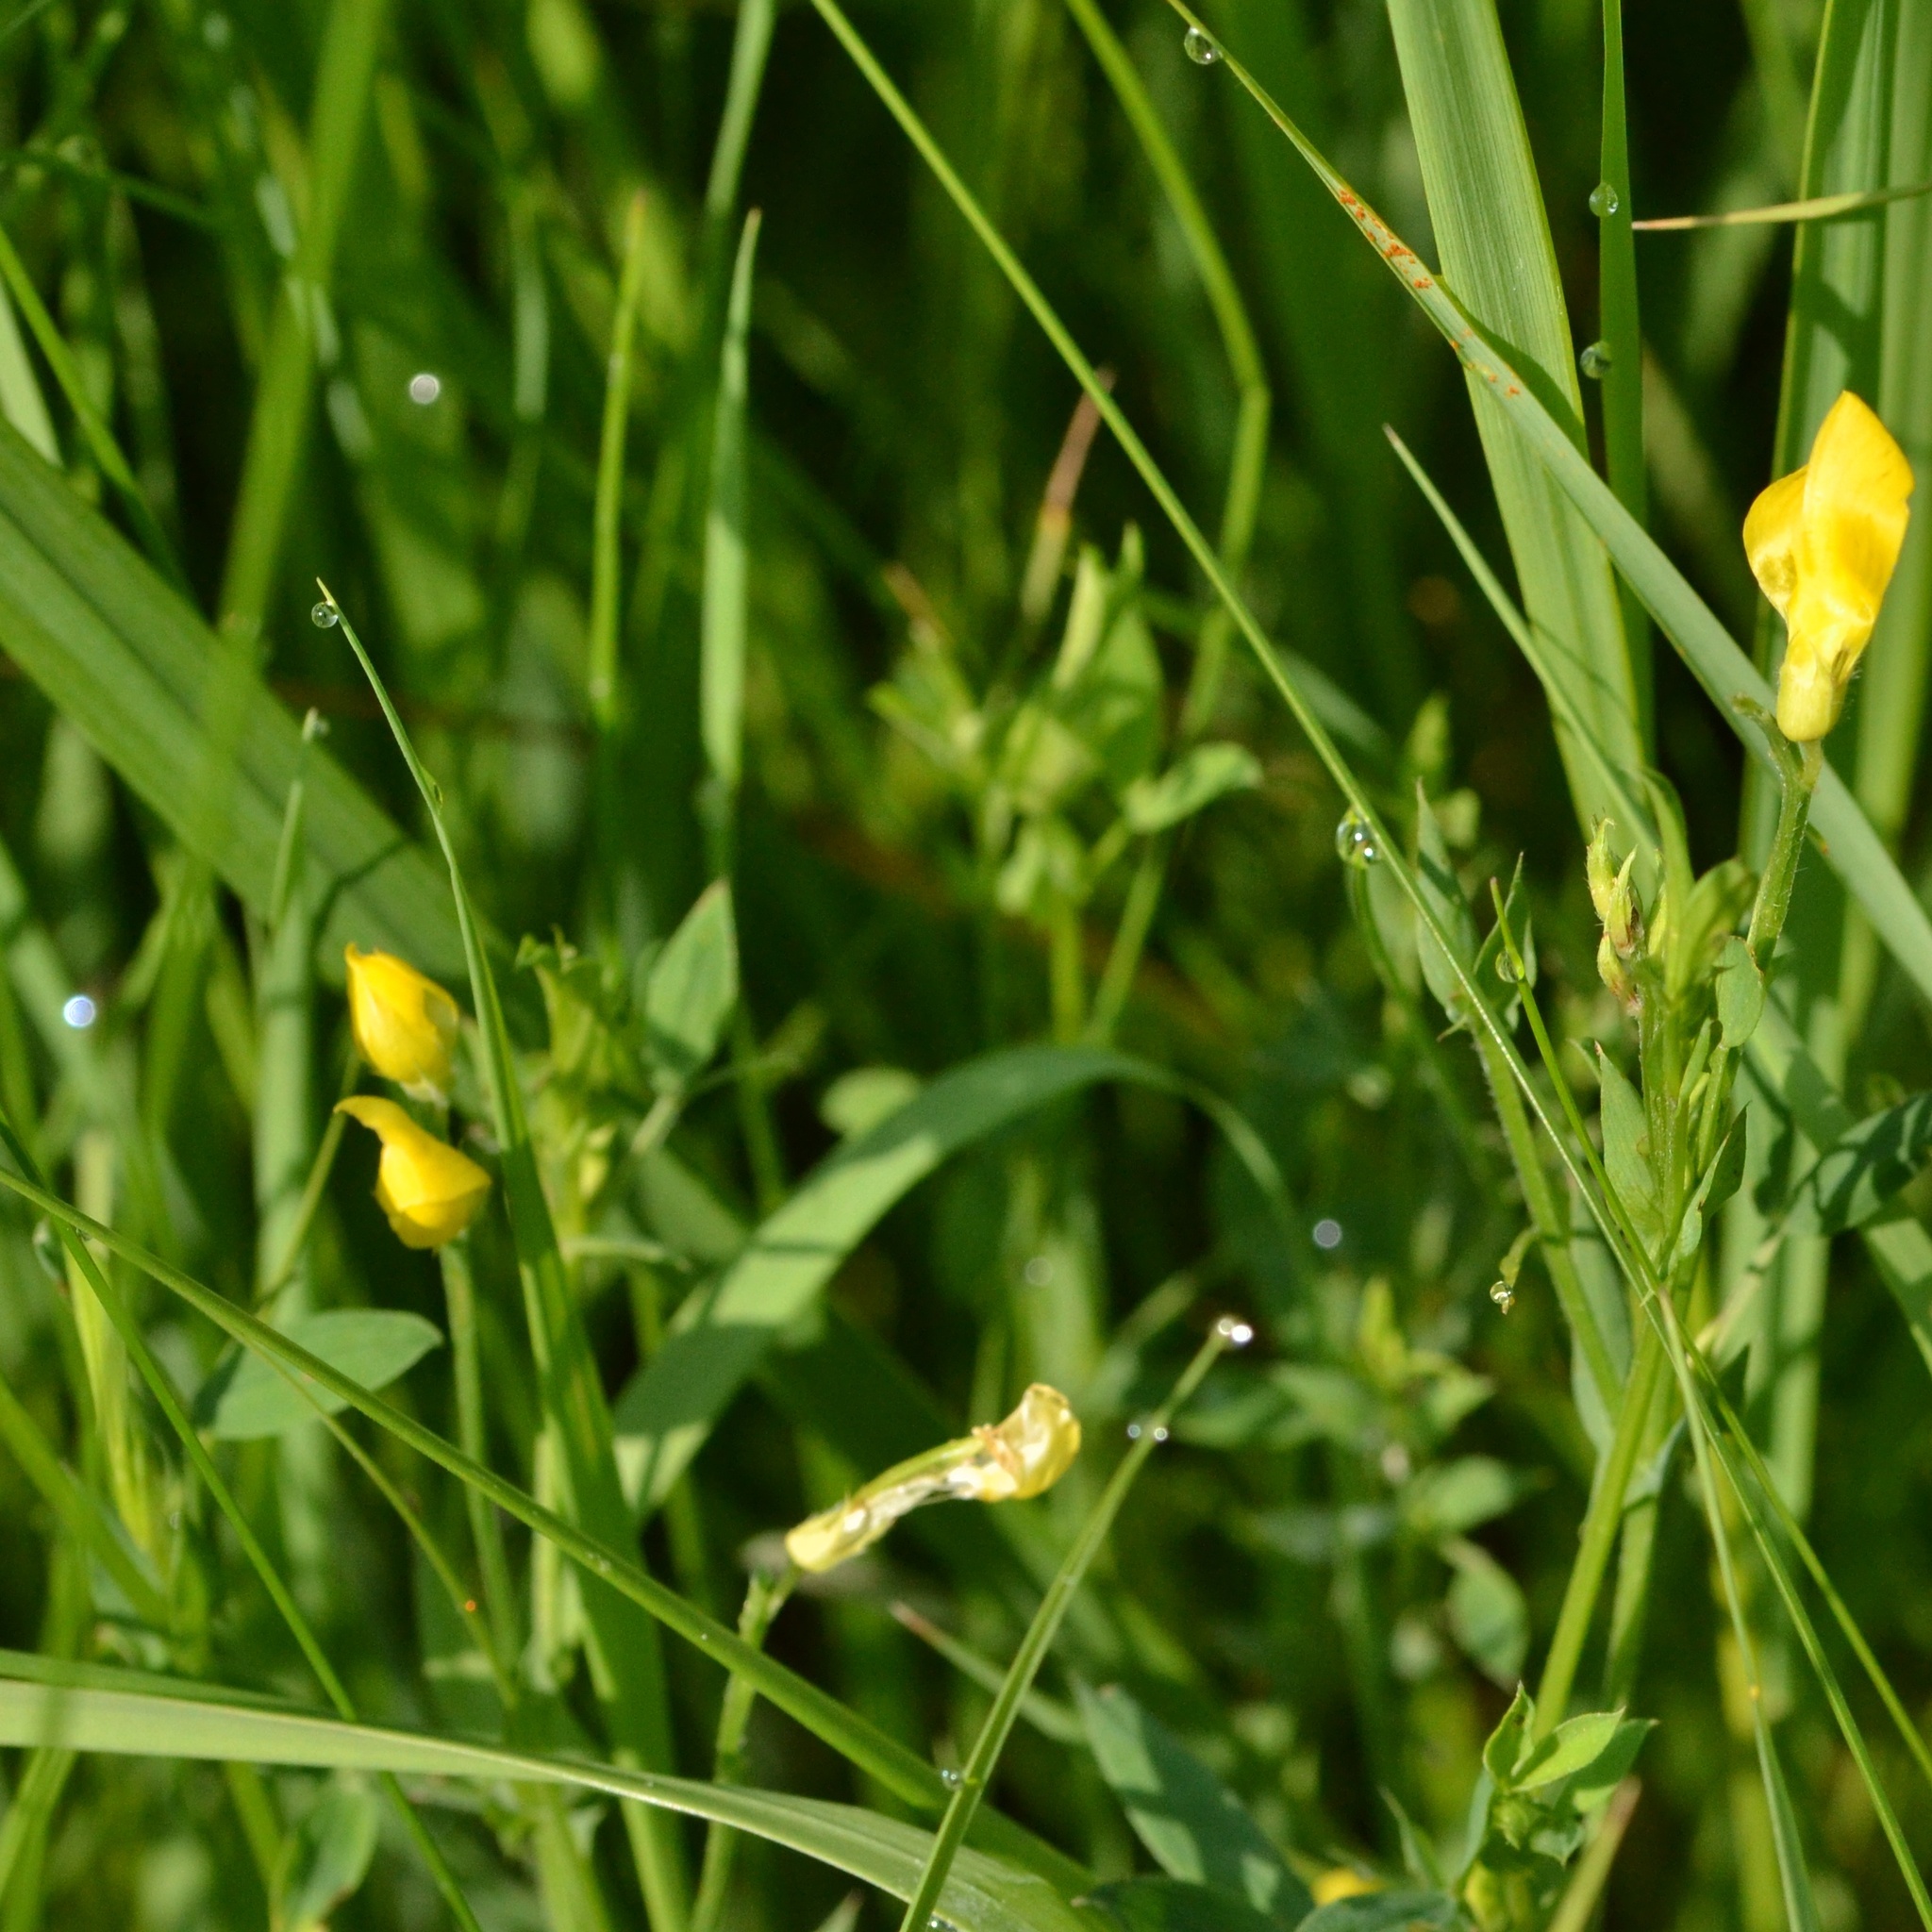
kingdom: Plantae
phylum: Tracheophyta
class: Magnoliopsida
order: Fabales
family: Fabaceae
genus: Lathyrus
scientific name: Lathyrus pratensis
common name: Meadow vetchling
